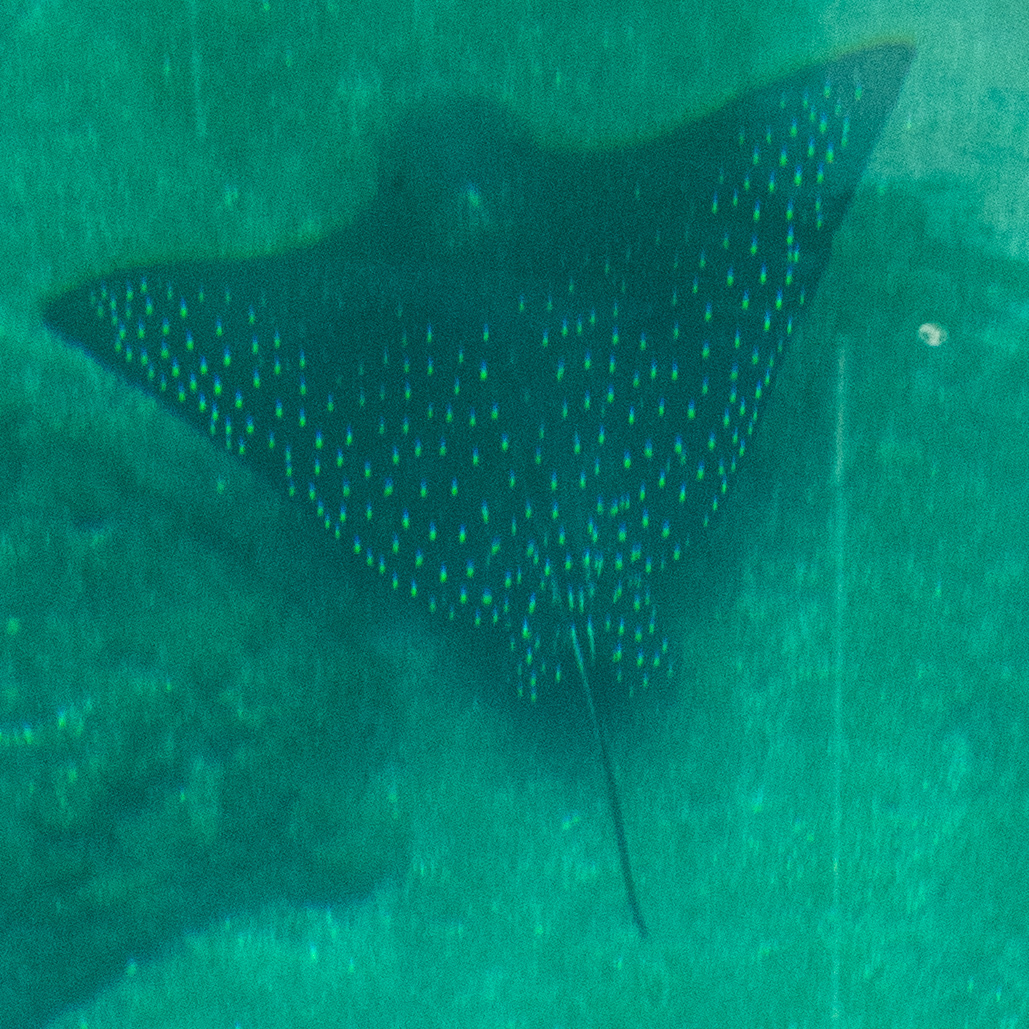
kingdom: Animalia
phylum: Chordata
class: Elasmobranchii
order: Myliobatiformes
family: Myliobatidae
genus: Aetobatus
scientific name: Aetobatus ocellatus
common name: Ocellated eagle ray
